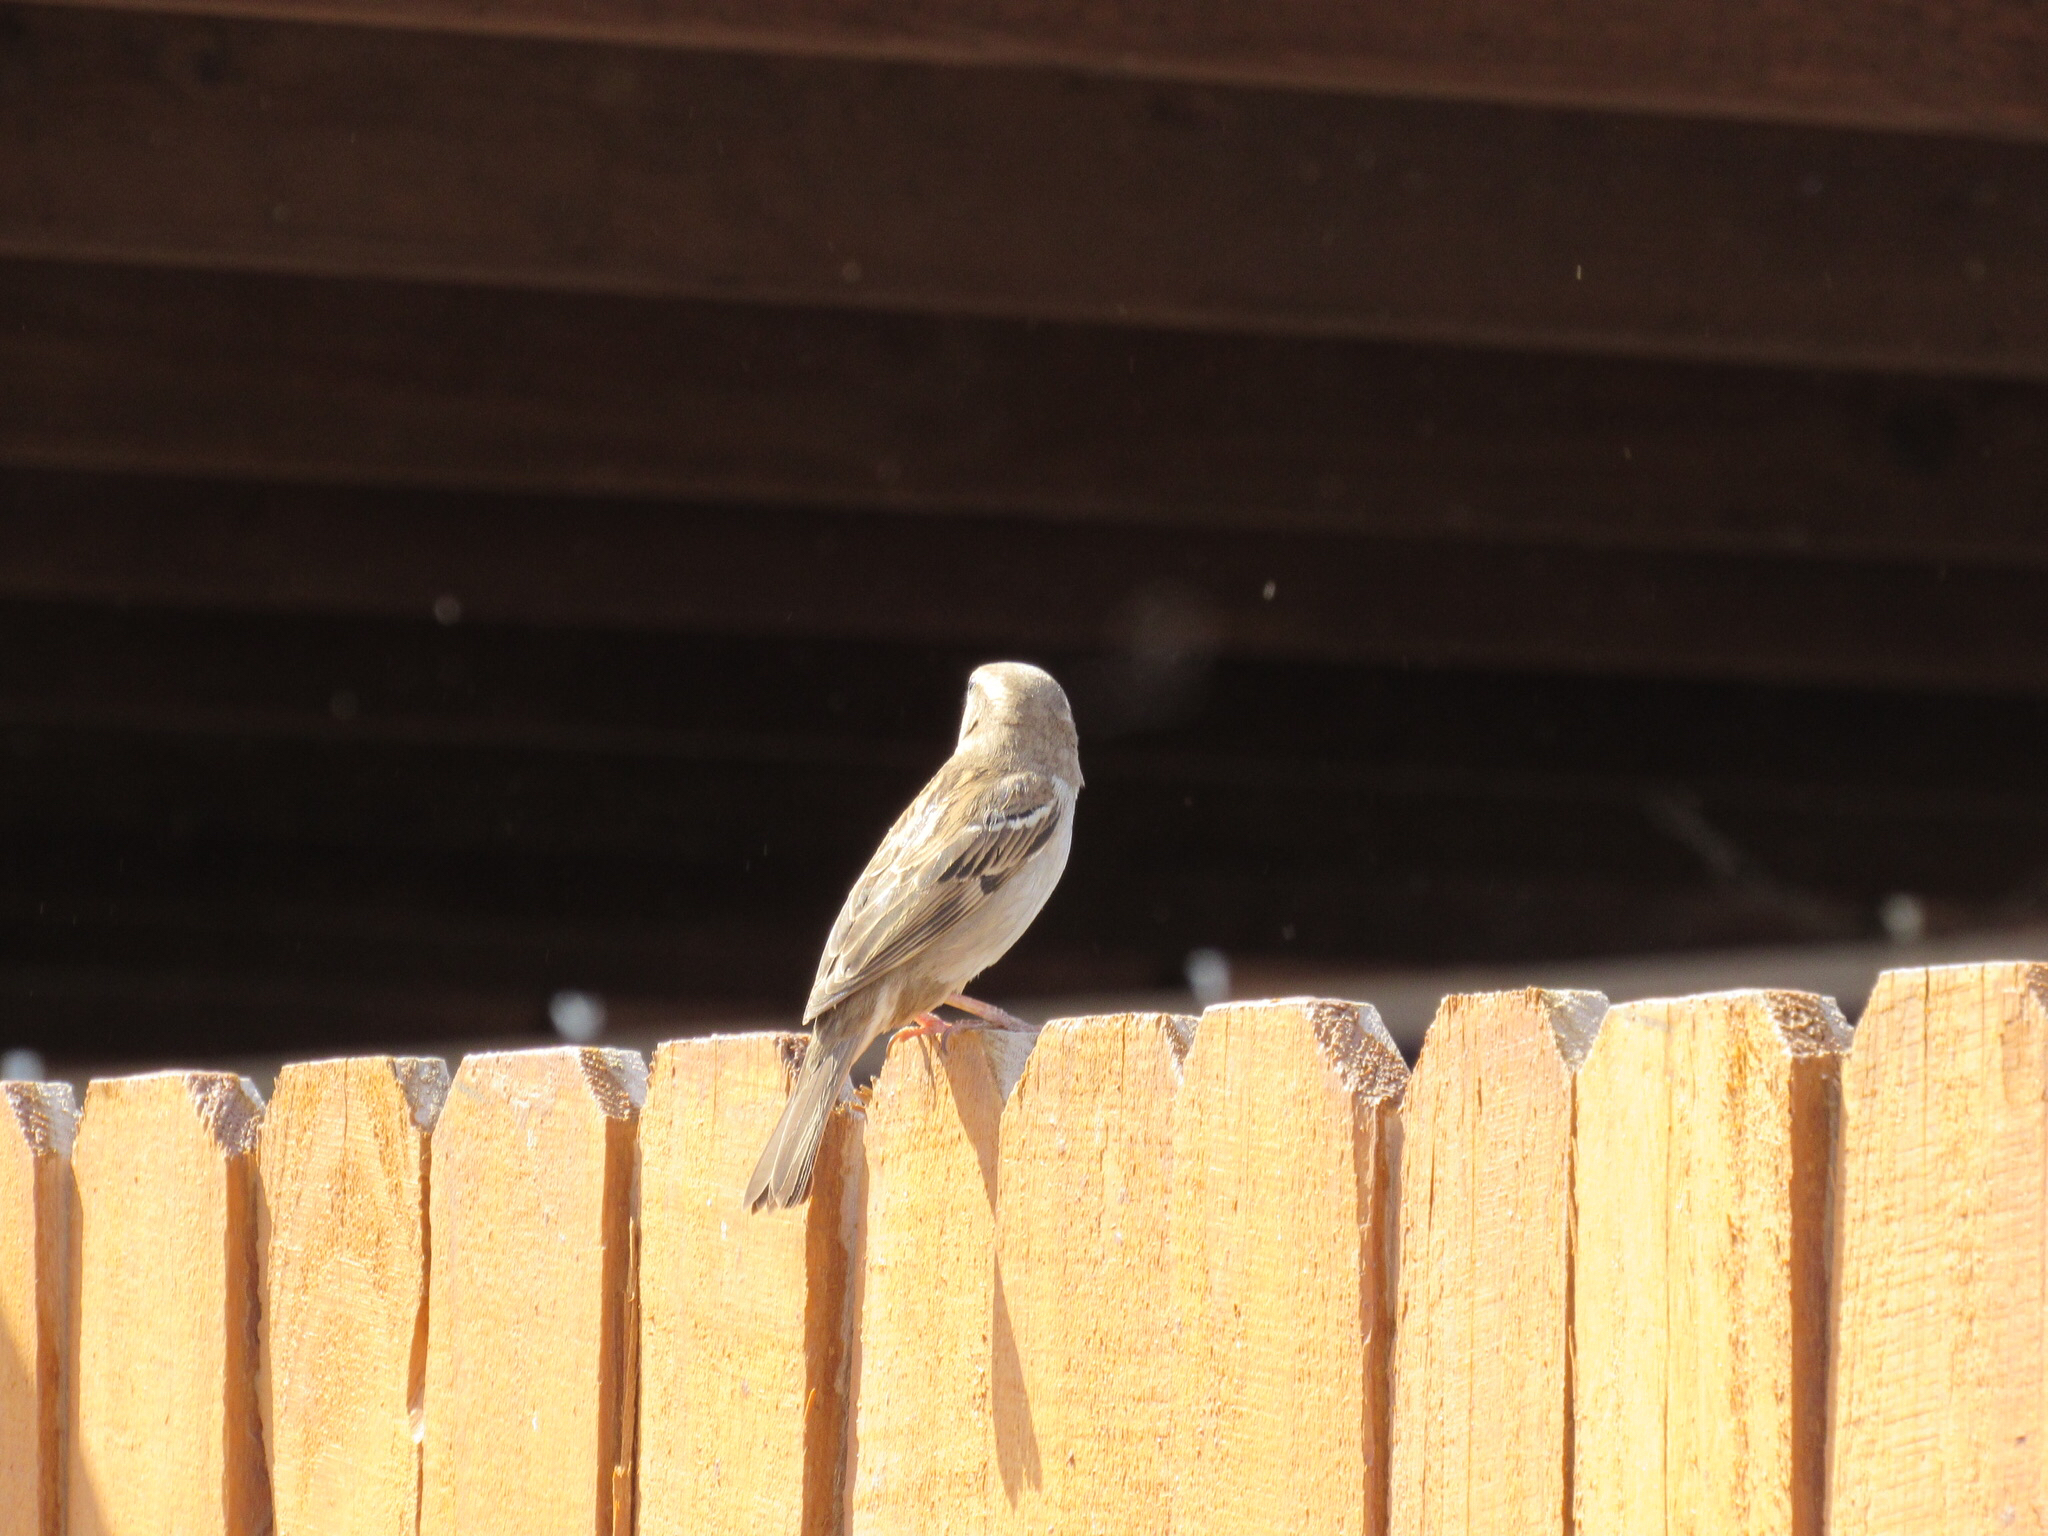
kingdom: Animalia
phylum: Chordata
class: Aves
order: Passeriformes
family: Passeridae
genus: Passer
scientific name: Passer domesticus
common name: House sparrow
